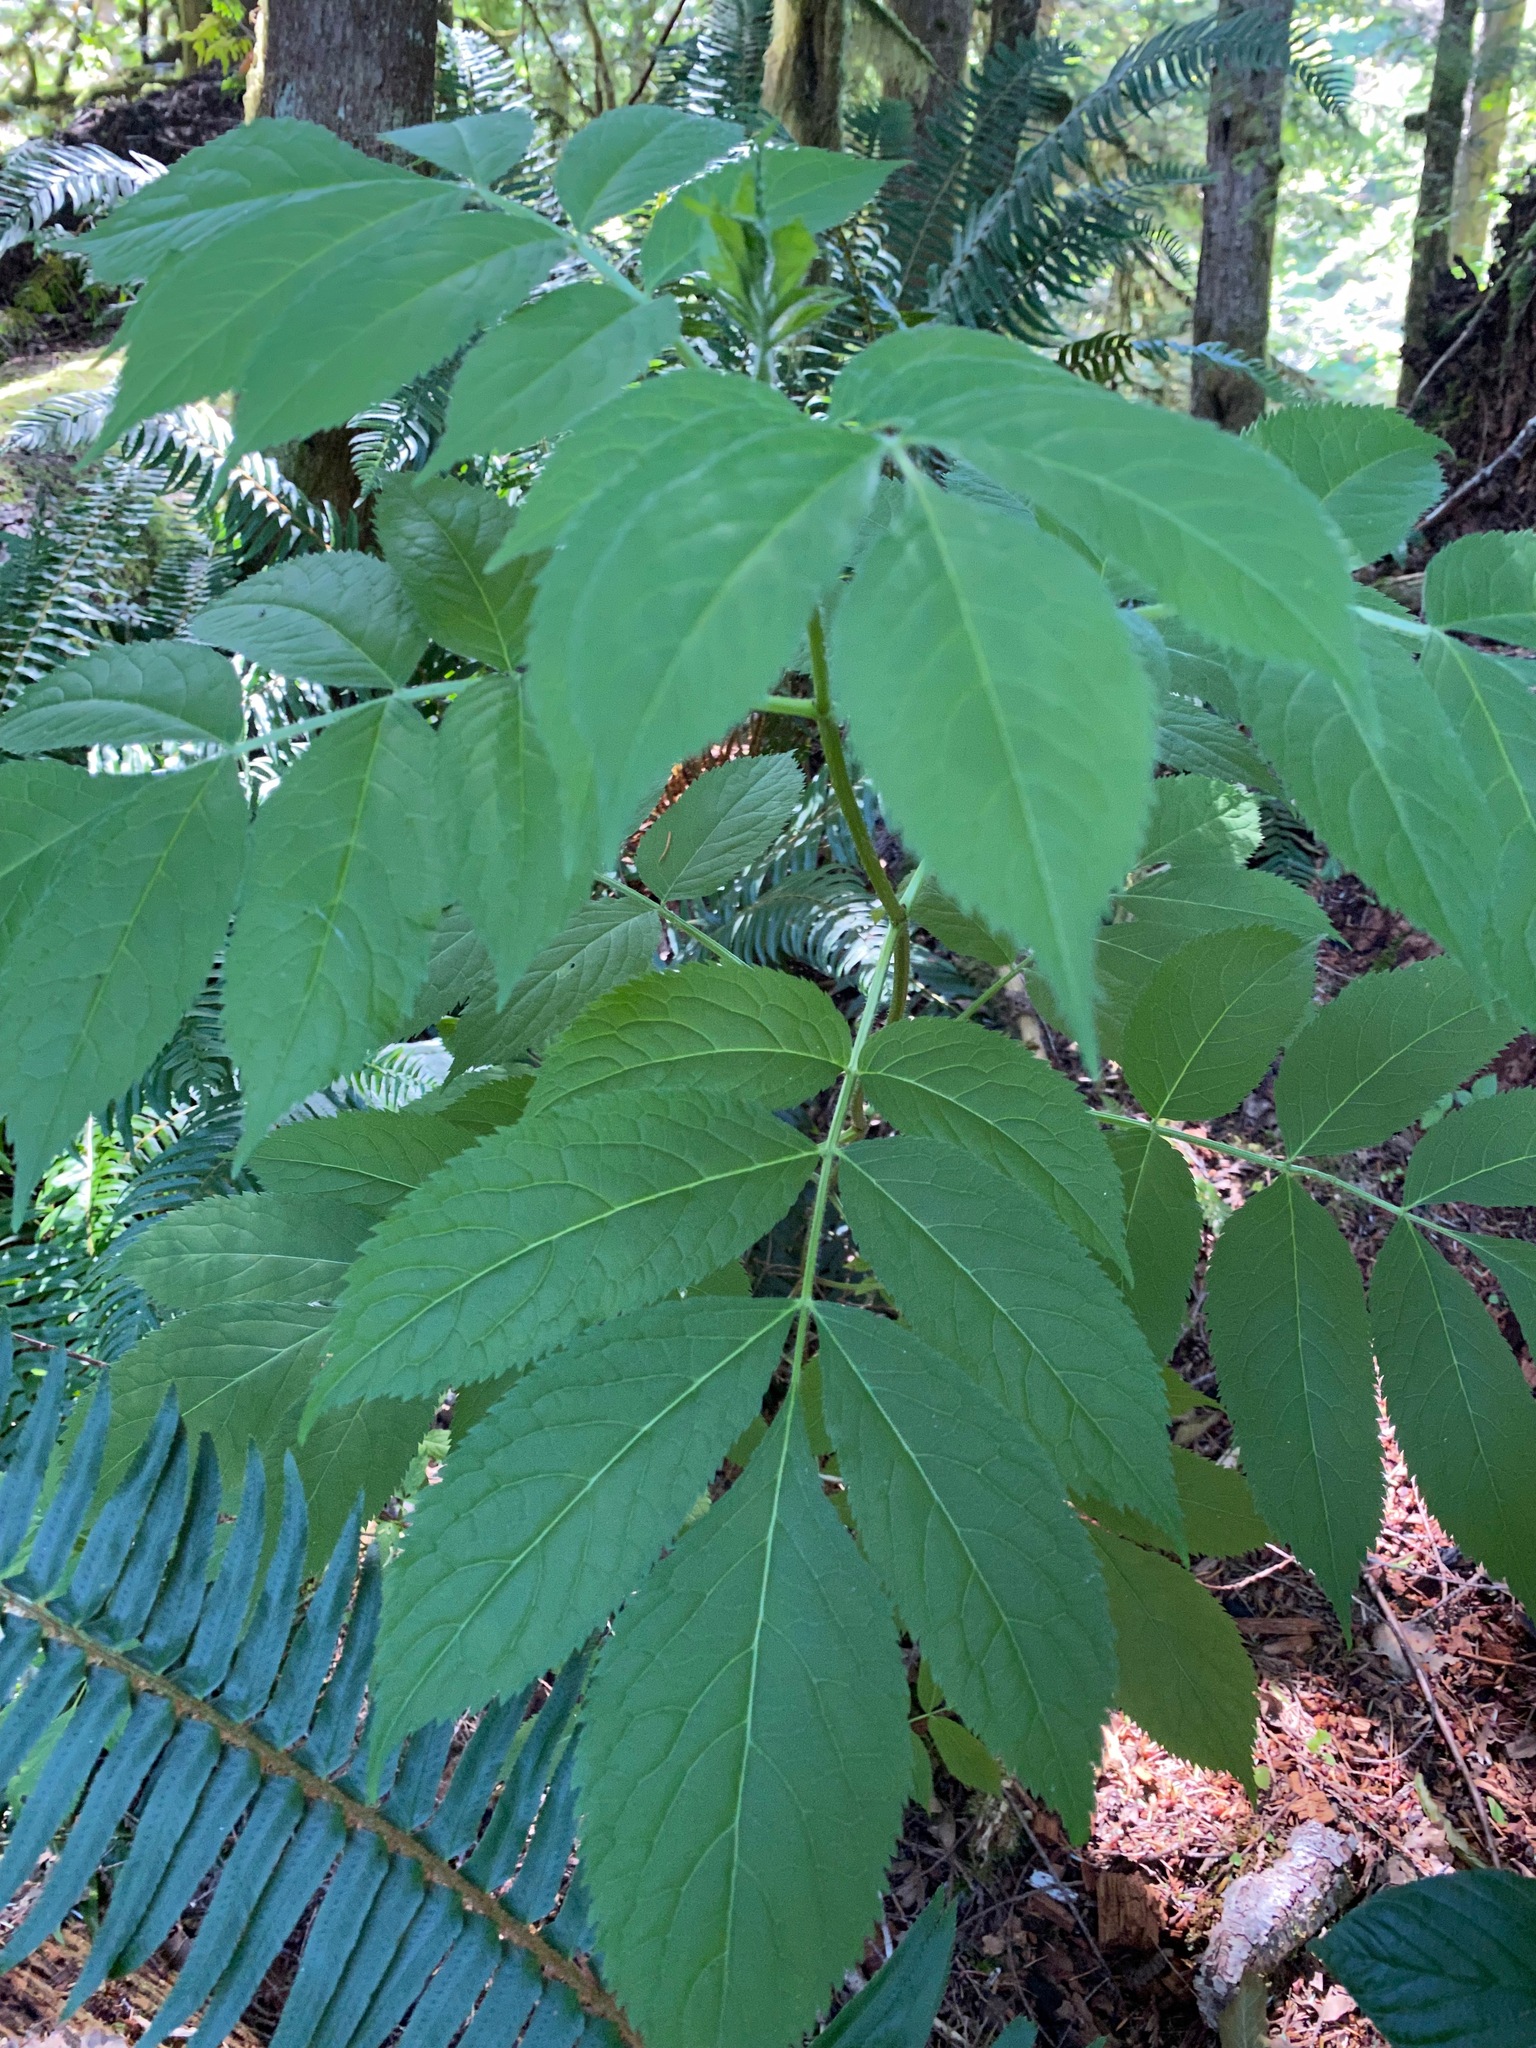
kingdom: Plantae
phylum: Tracheophyta
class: Magnoliopsida
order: Dipsacales
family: Viburnaceae
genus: Sambucus
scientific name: Sambucus racemosa
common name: Red-berried elder
